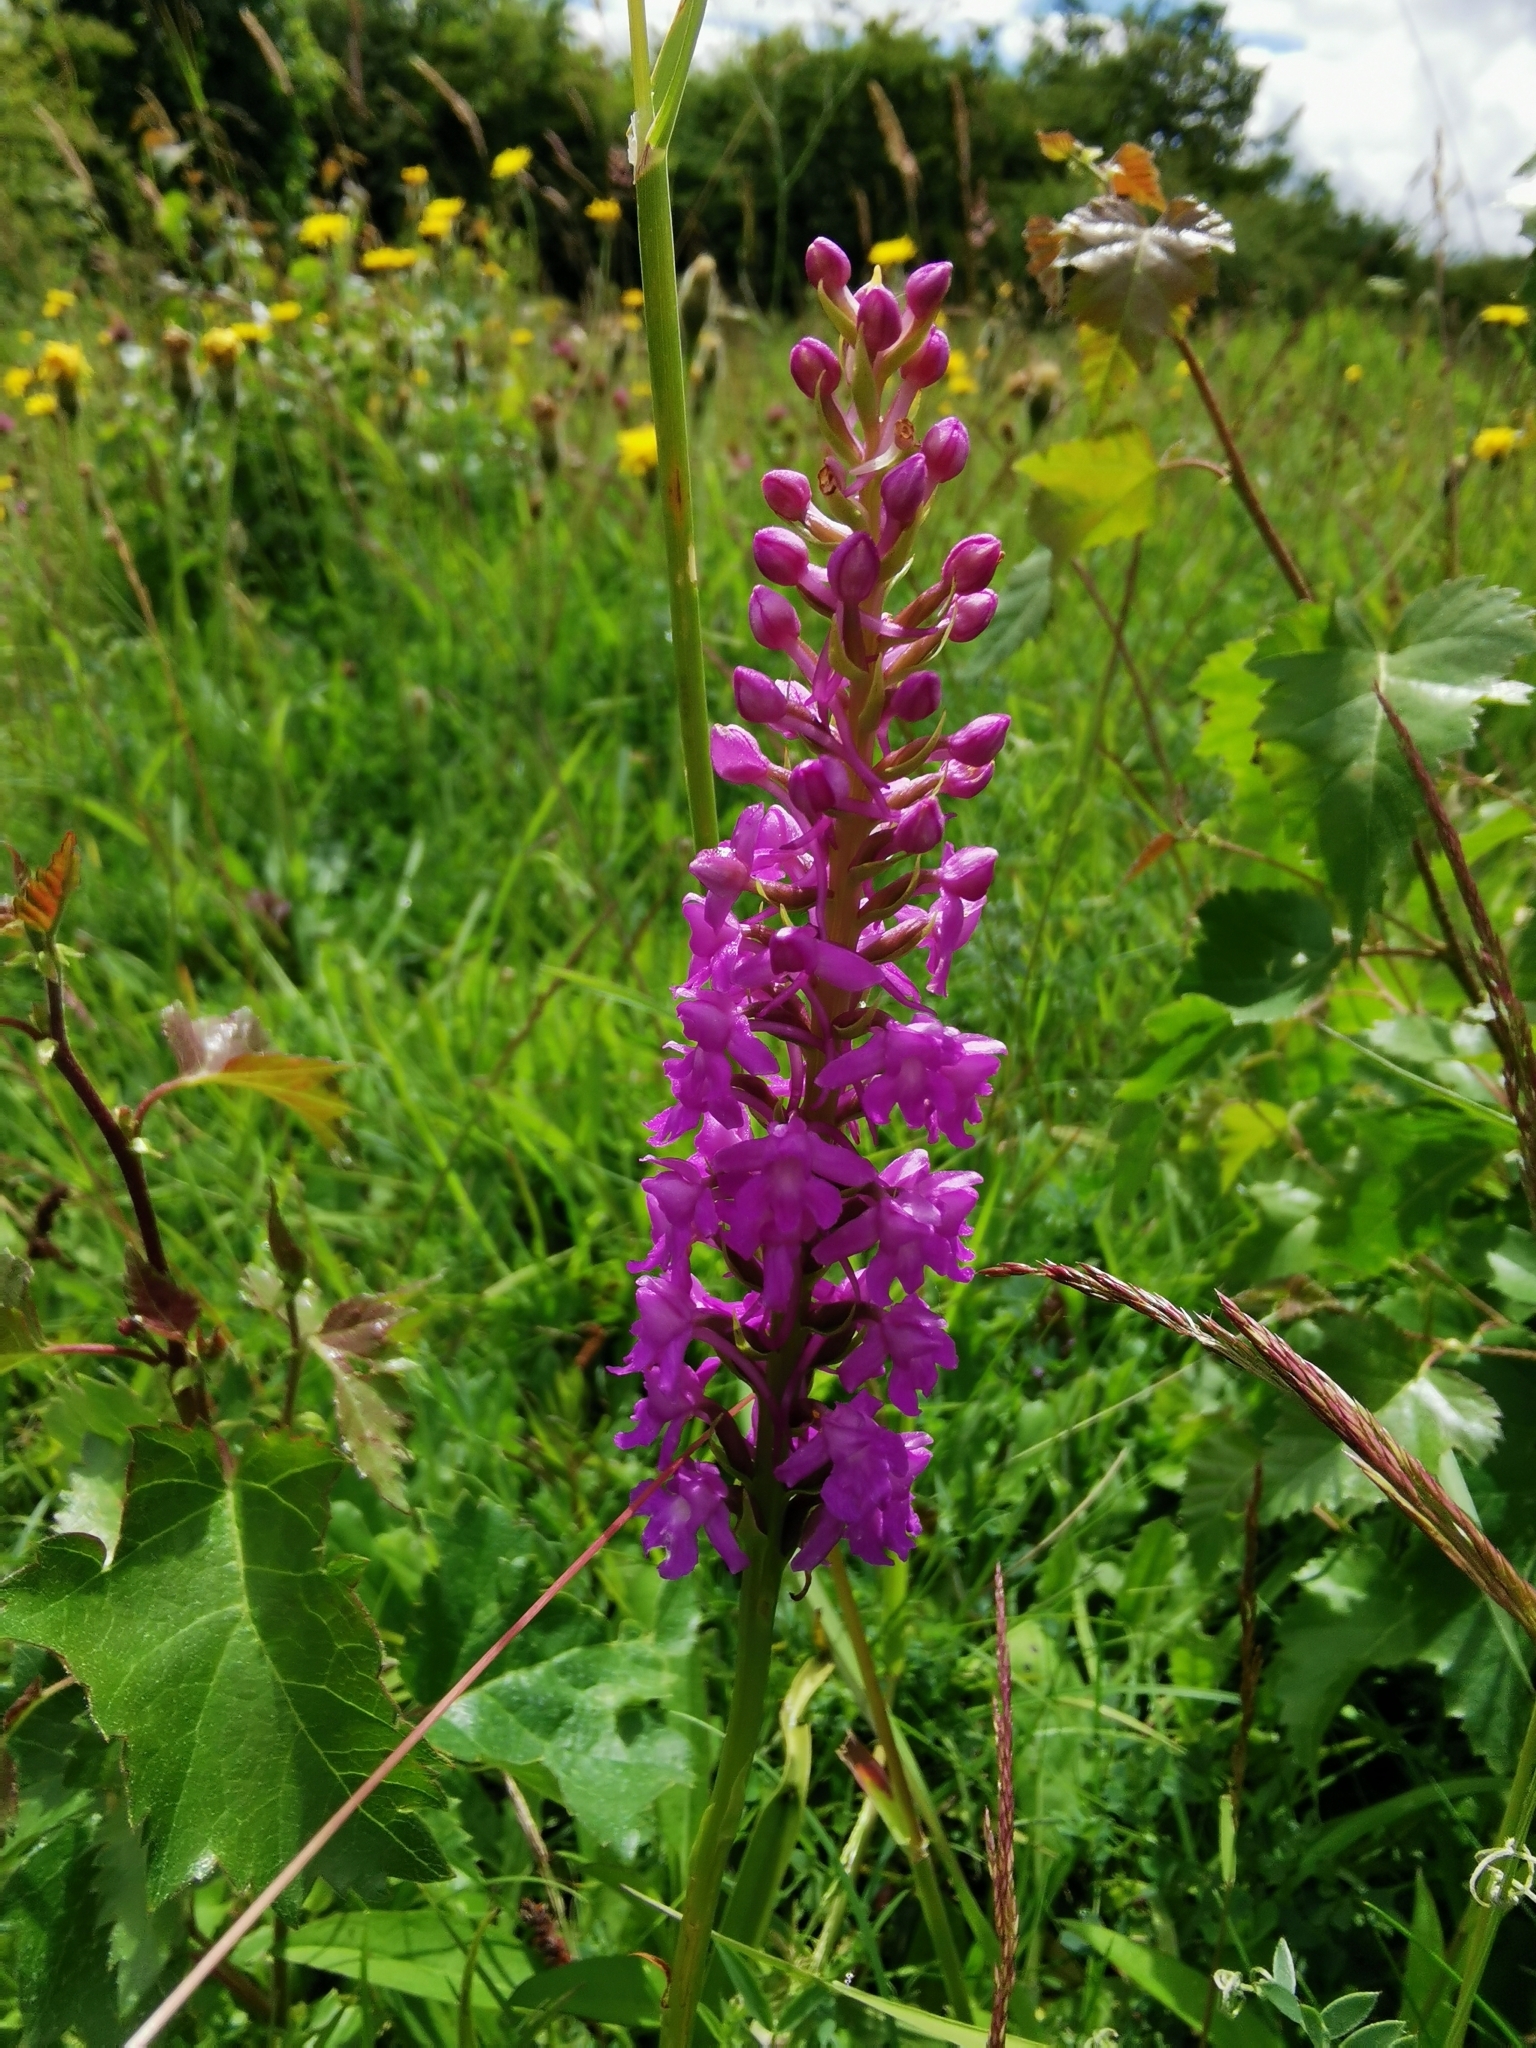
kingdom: Plantae
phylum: Tracheophyta
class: Liliopsida
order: Asparagales
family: Orchidaceae
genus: Gymnadenia
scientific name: Gymnadenia densiflora
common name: Marsh fragrant-orchid
